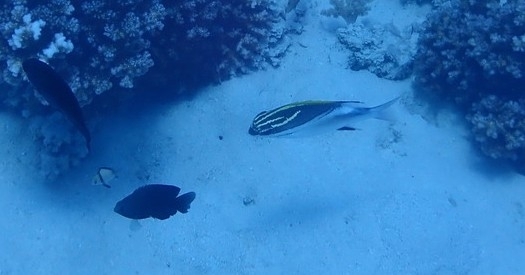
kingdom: Animalia
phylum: Chordata
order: Perciformes
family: Nemipteridae
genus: Scolopsis
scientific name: Scolopsis bilineata
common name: Two-lined monocle bream
